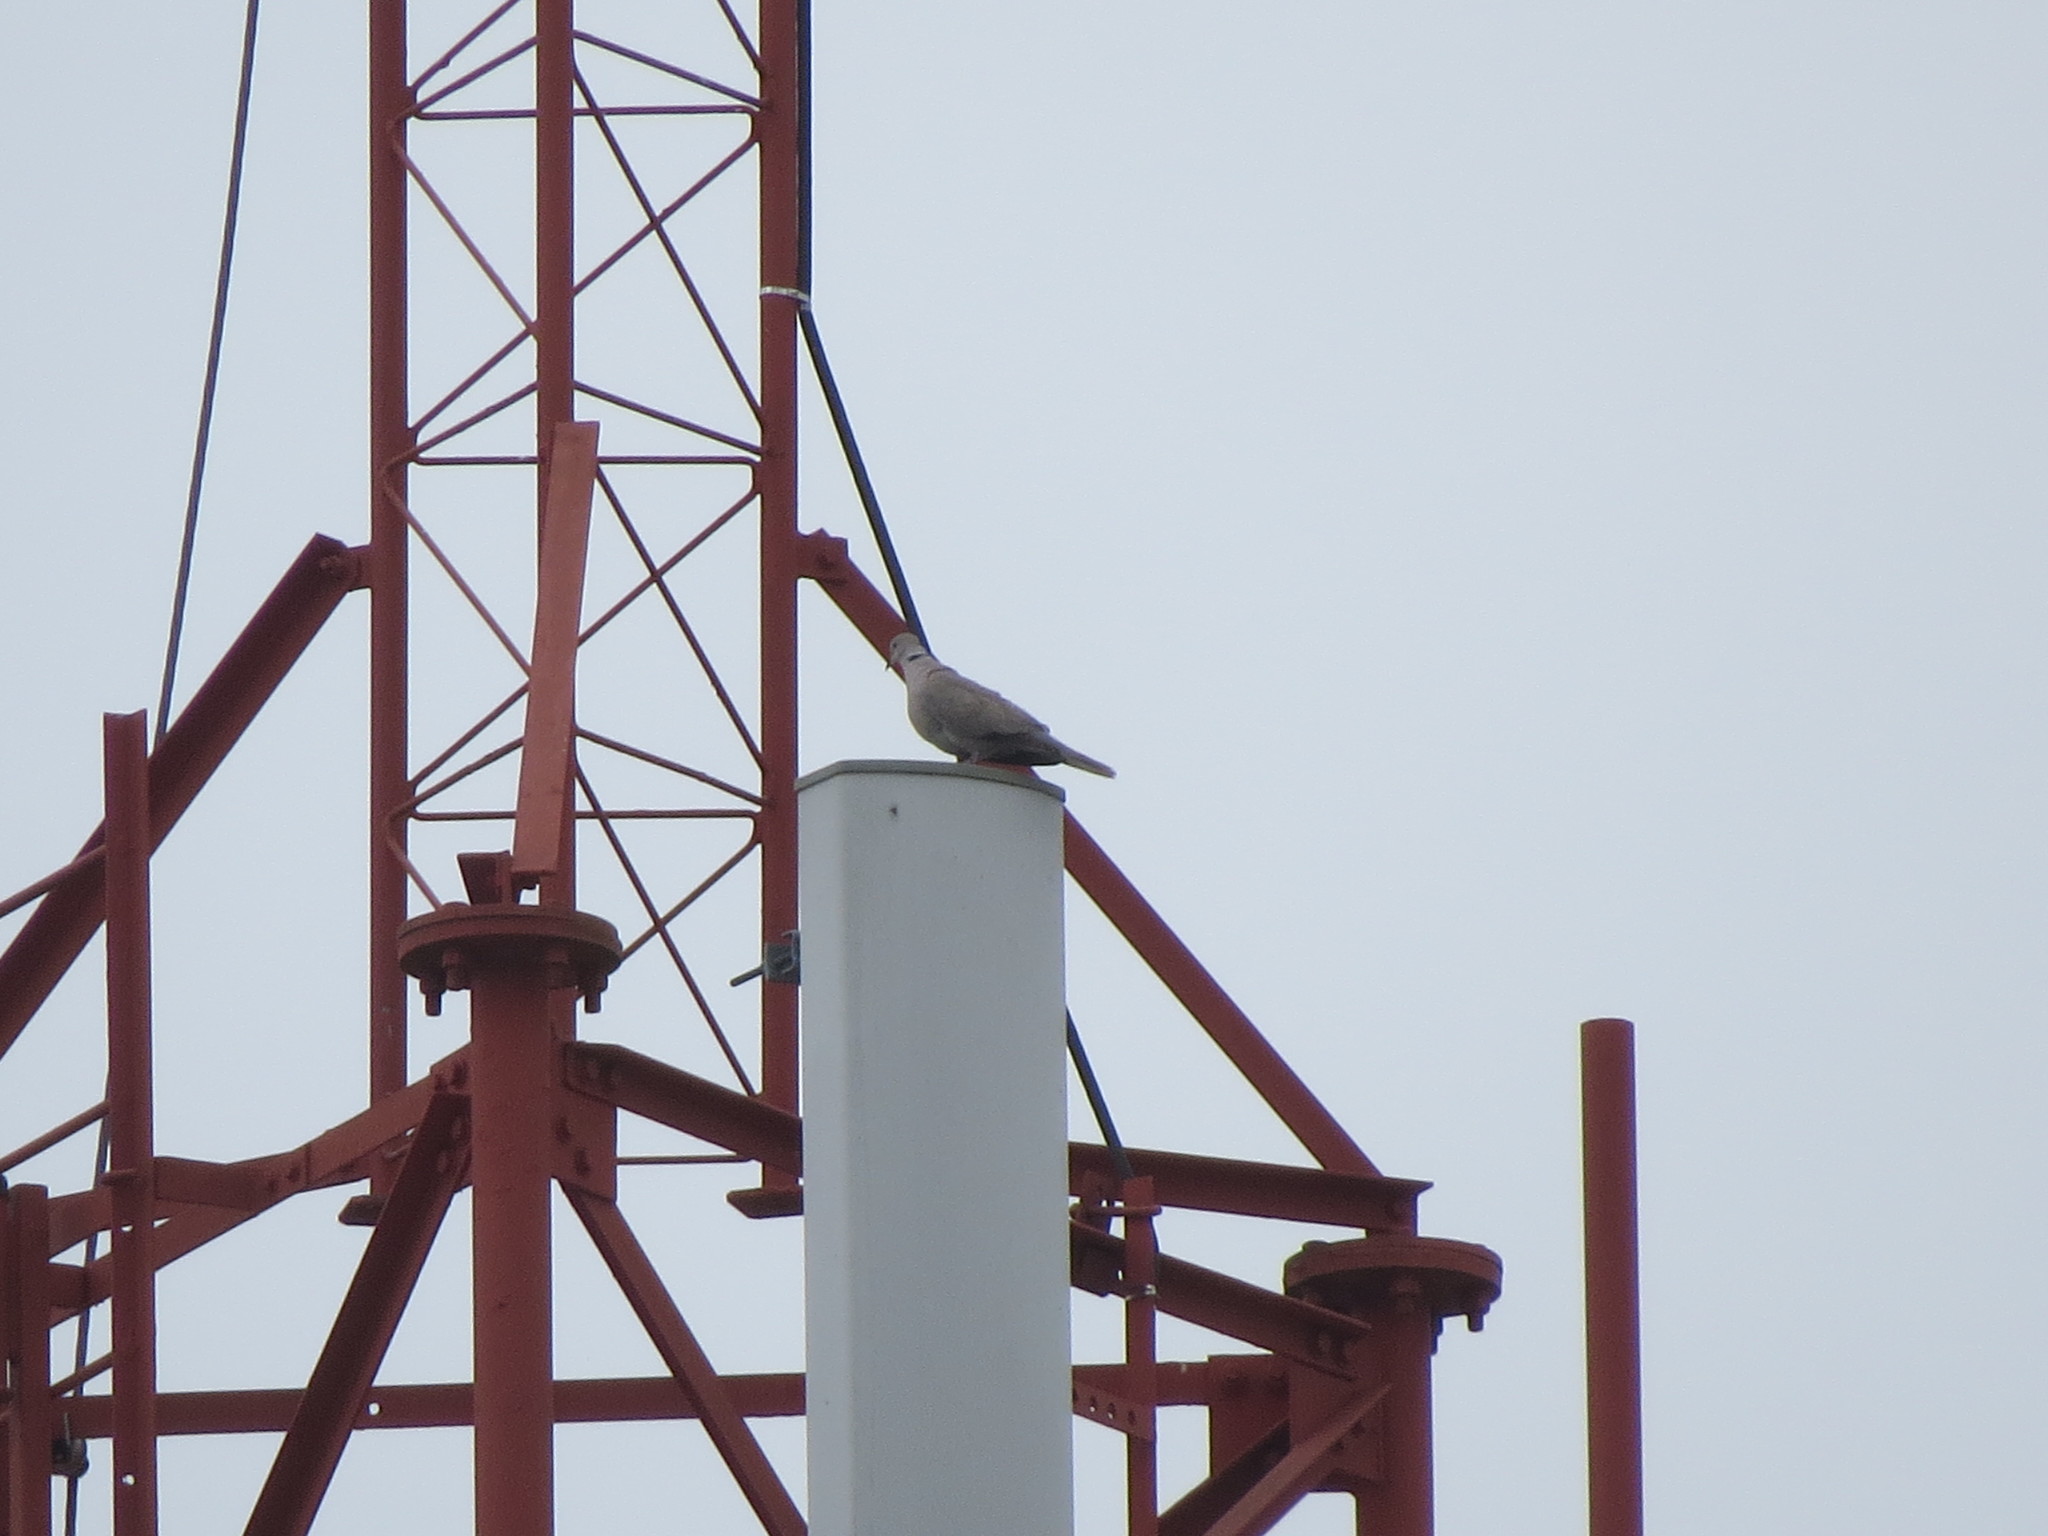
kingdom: Animalia
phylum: Chordata
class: Aves
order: Columbiformes
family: Columbidae
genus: Streptopelia
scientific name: Streptopelia decaocto
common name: Eurasian collared dove
